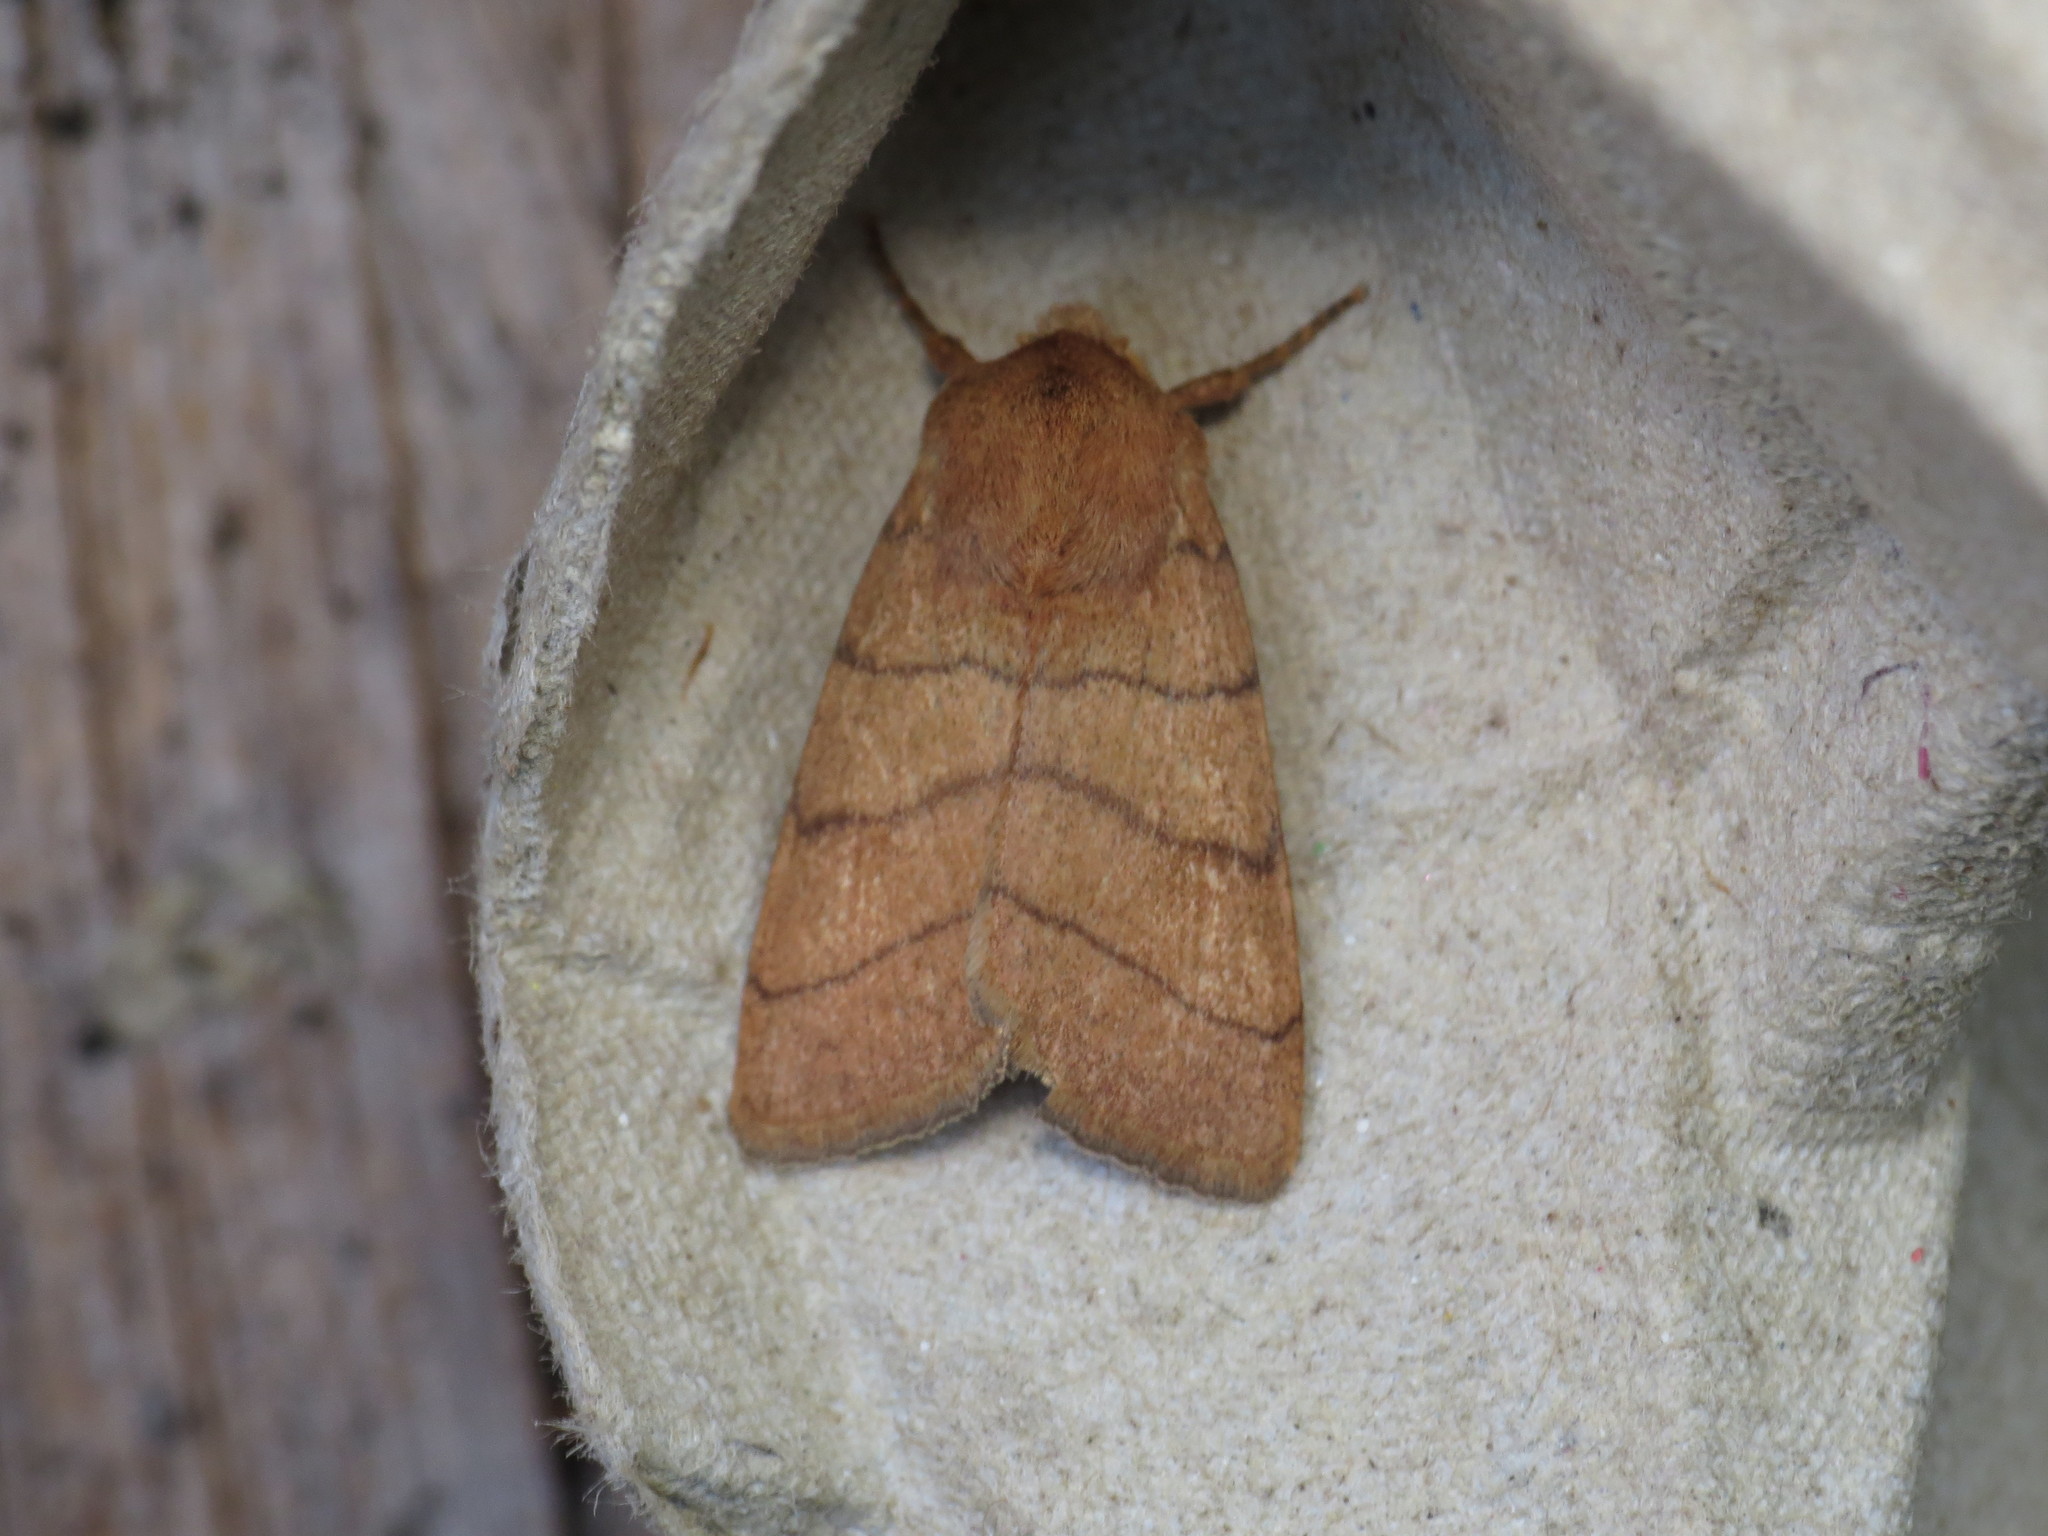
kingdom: Animalia
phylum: Arthropoda
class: Insecta
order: Lepidoptera
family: Noctuidae
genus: Charanyca
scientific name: Charanyca trigrammica
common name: Treble lines
